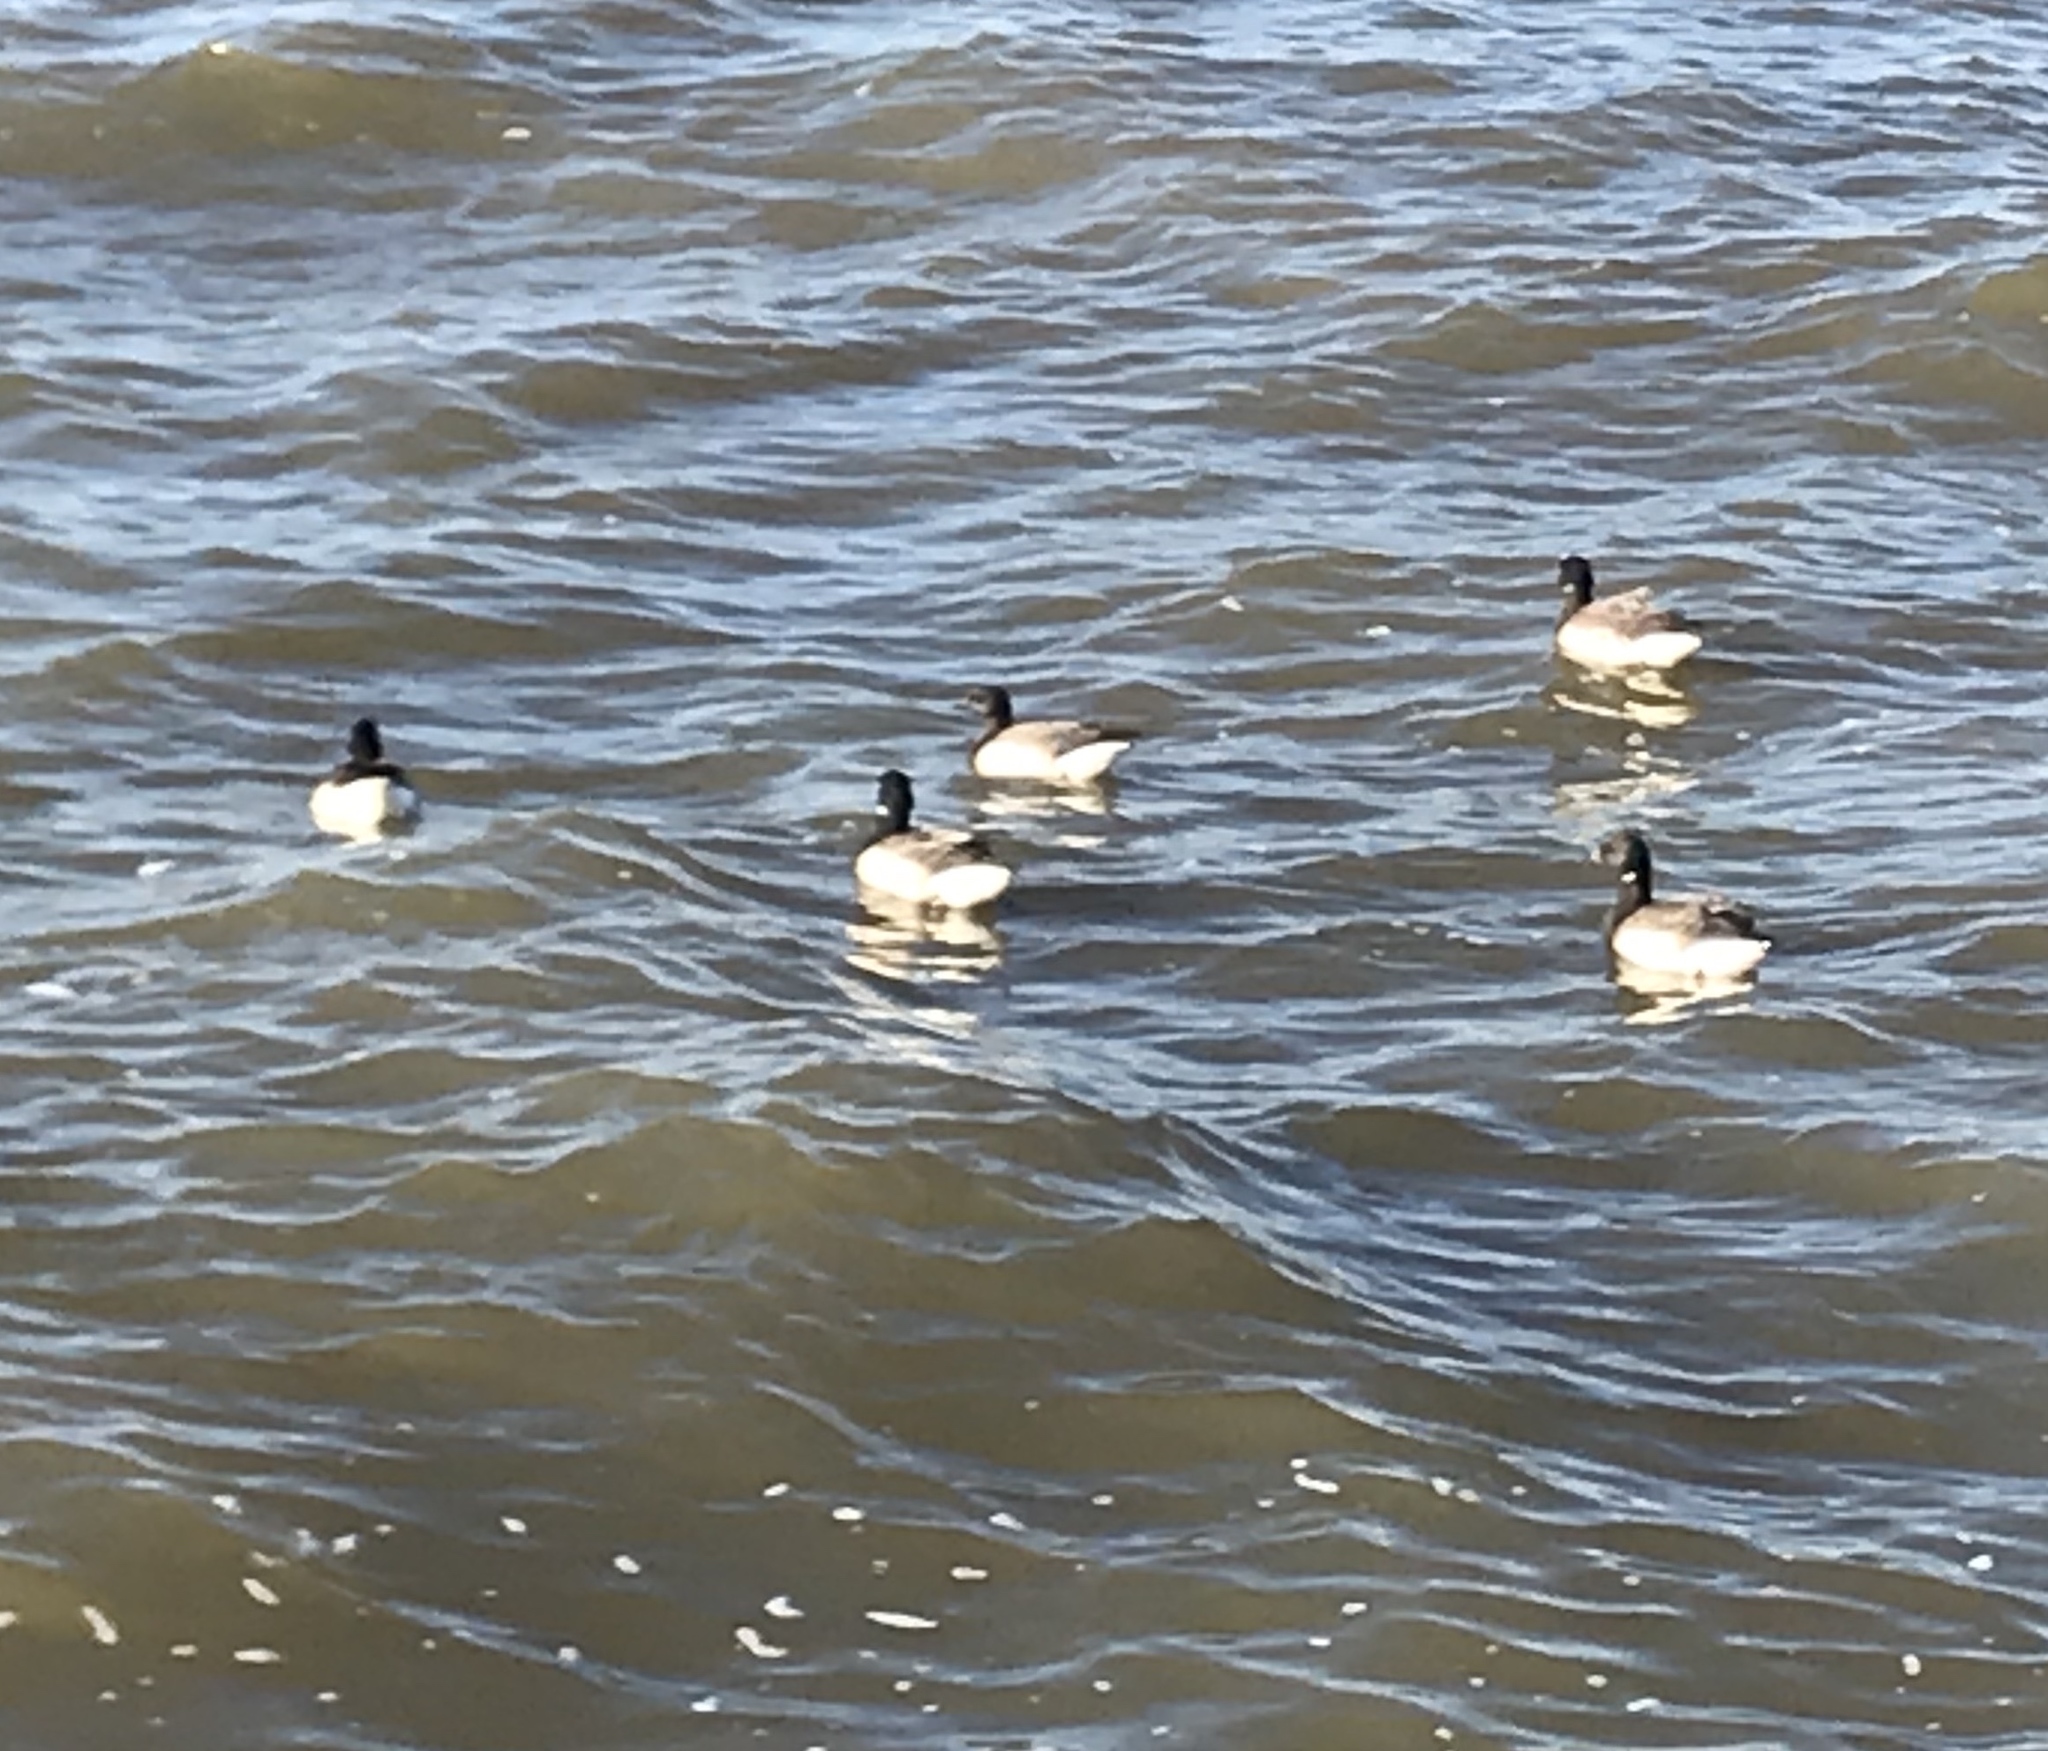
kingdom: Animalia
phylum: Chordata
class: Aves
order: Anseriformes
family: Anatidae
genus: Branta
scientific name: Branta bernicla
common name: Brant goose
